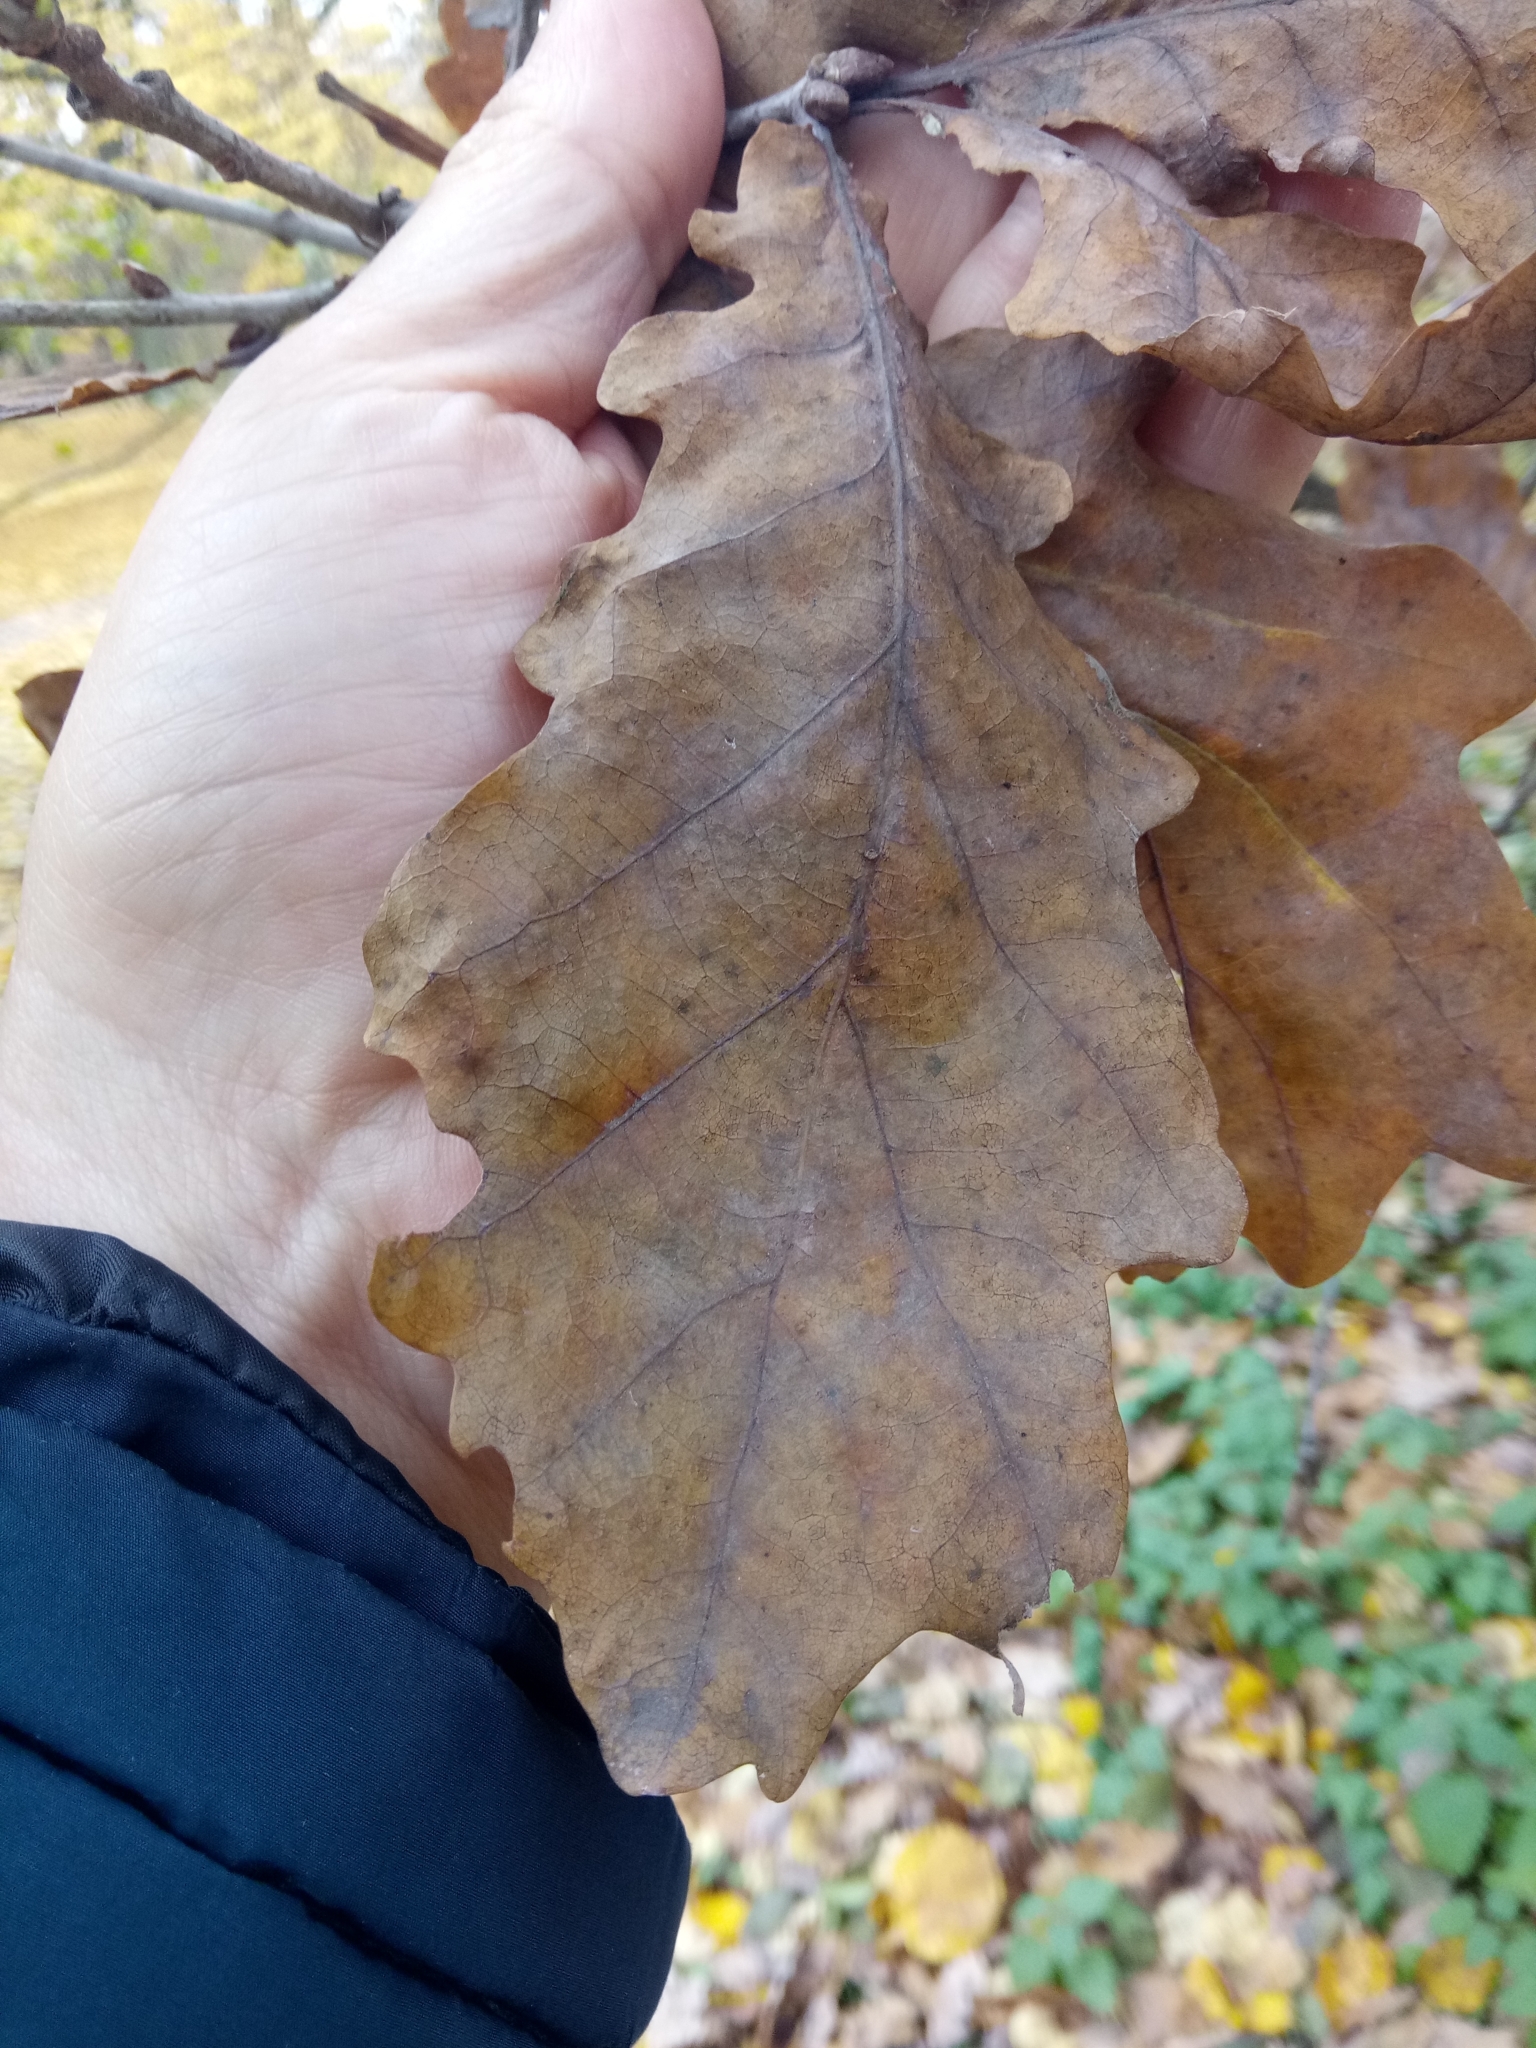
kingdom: Plantae
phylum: Tracheophyta
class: Magnoliopsida
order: Fagales
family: Fagaceae
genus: Quercus
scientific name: Quercus robur
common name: Pedunculate oak
